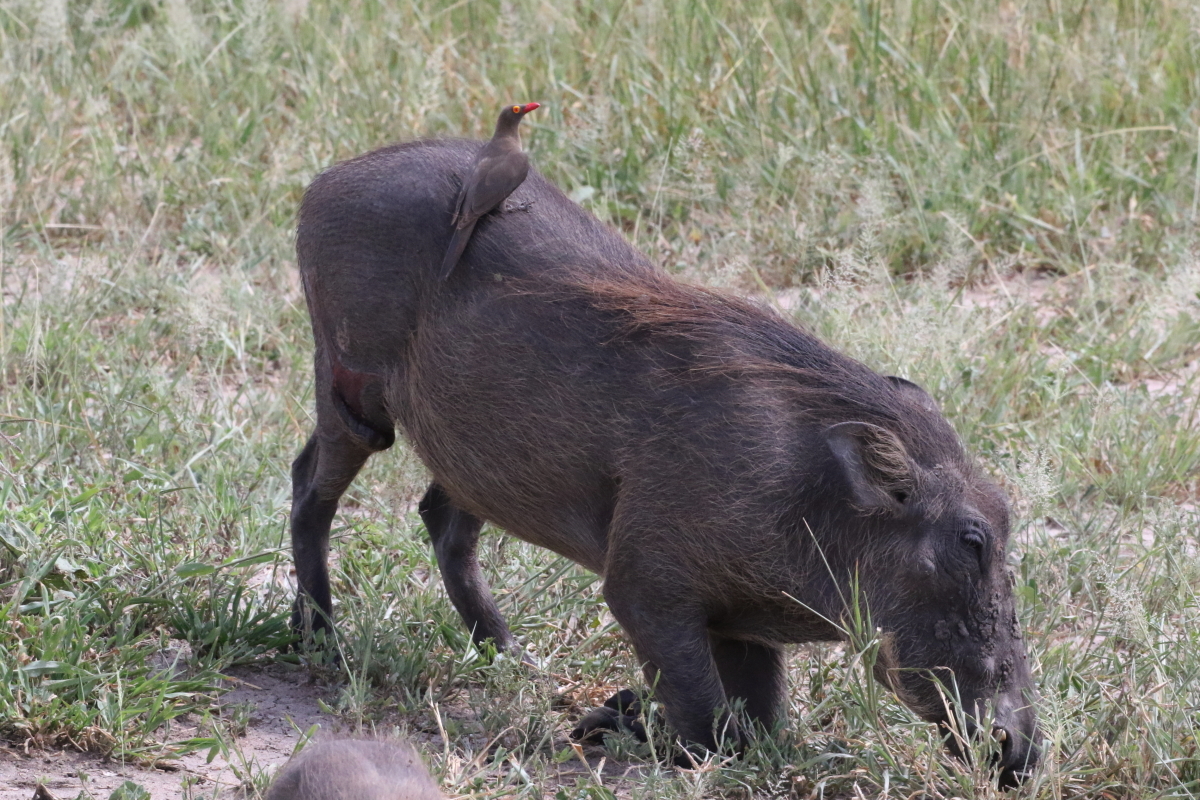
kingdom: Animalia
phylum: Chordata
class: Mammalia
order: Artiodactyla
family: Suidae
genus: Phacochoerus
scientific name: Phacochoerus africanus
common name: Common warthog
